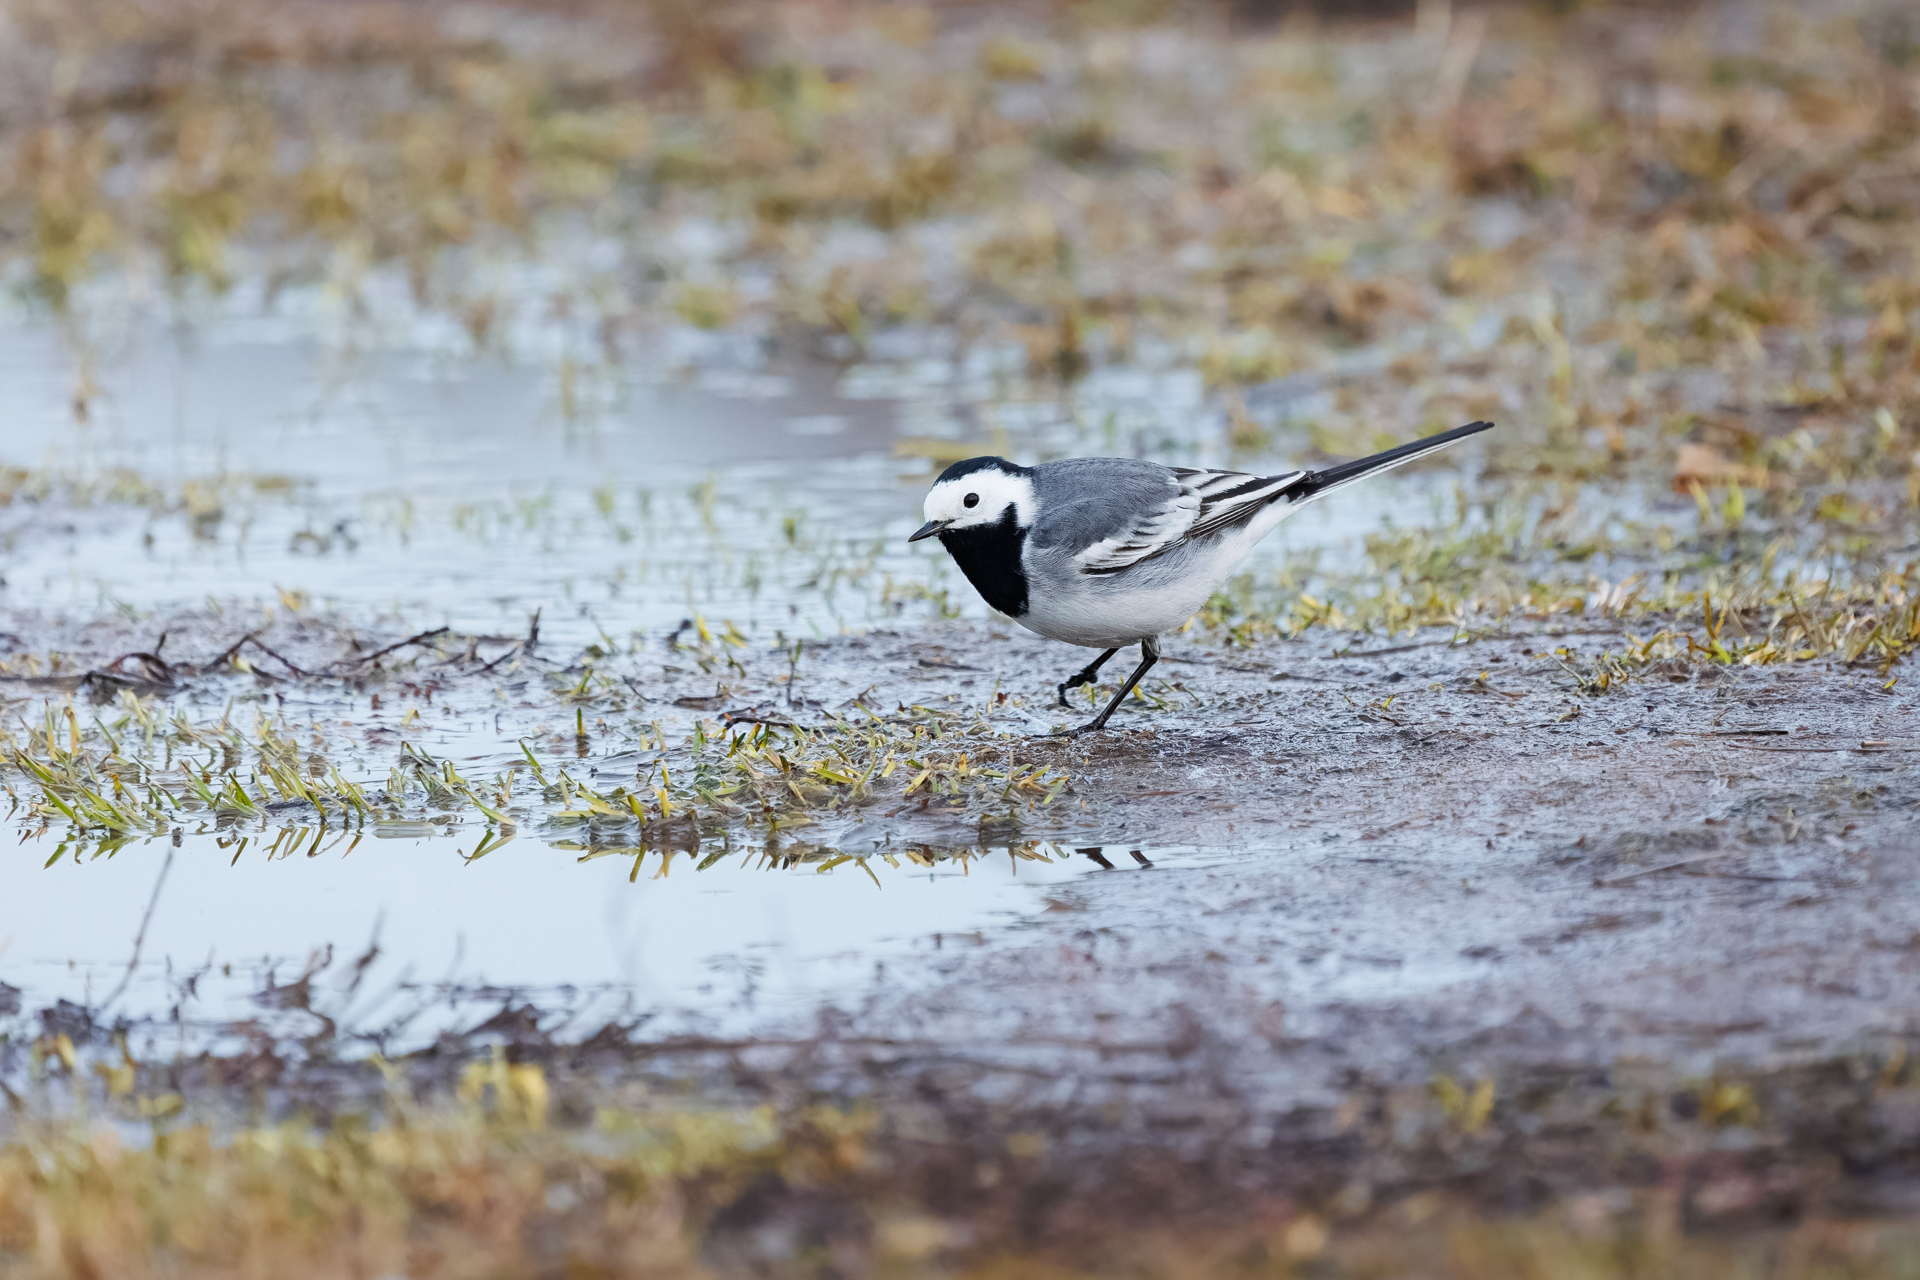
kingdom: Animalia
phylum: Chordata
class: Aves
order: Passeriformes
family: Motacillidae
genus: Motacilla
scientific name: Motacilla alba
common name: White wagtail
